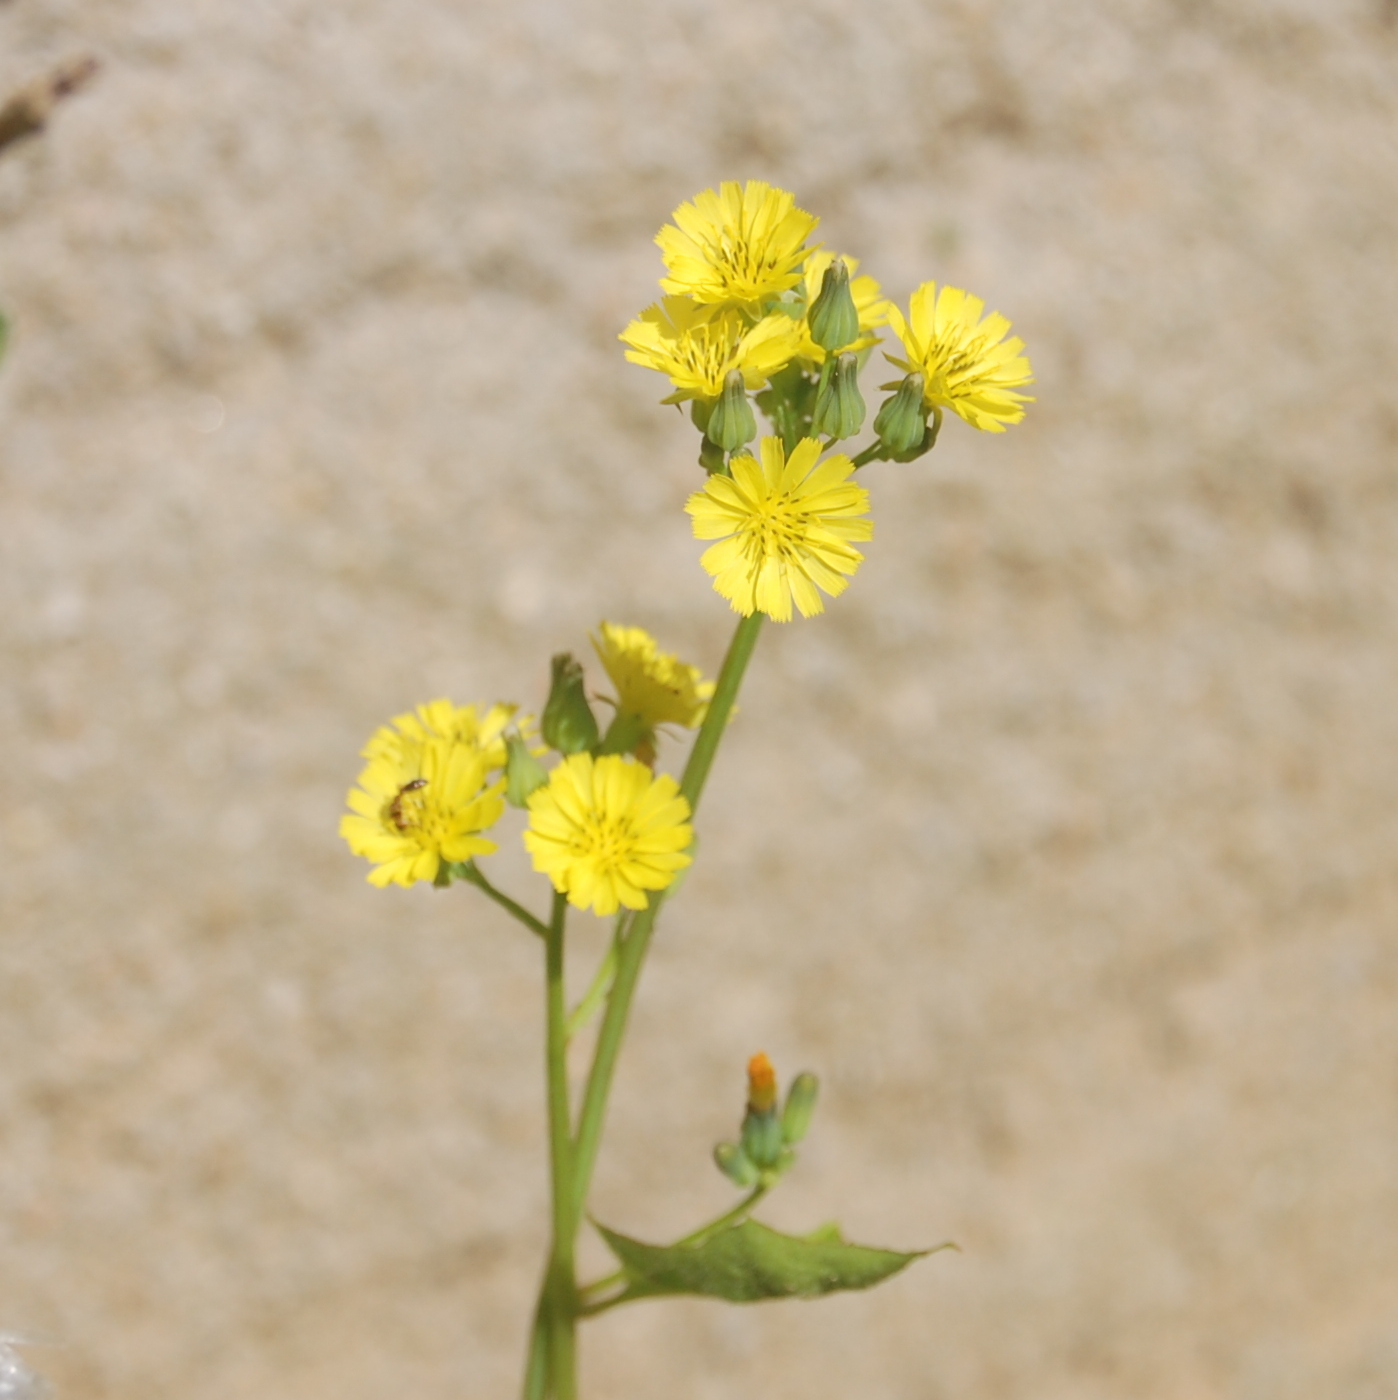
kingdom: Plantae
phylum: Tracheophyta
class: Magnoliopsida
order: Asterales
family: Asteraceae
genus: Youngia
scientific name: Youngia japonica
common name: Oriental false hawksbeard
